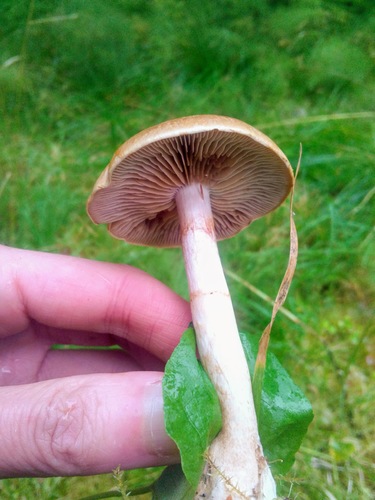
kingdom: Fungi
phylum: Basidiomycota
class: Agaricomycetes
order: Agaricales
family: Cortinariaceae
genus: Cortinarius
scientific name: Cortinarius
